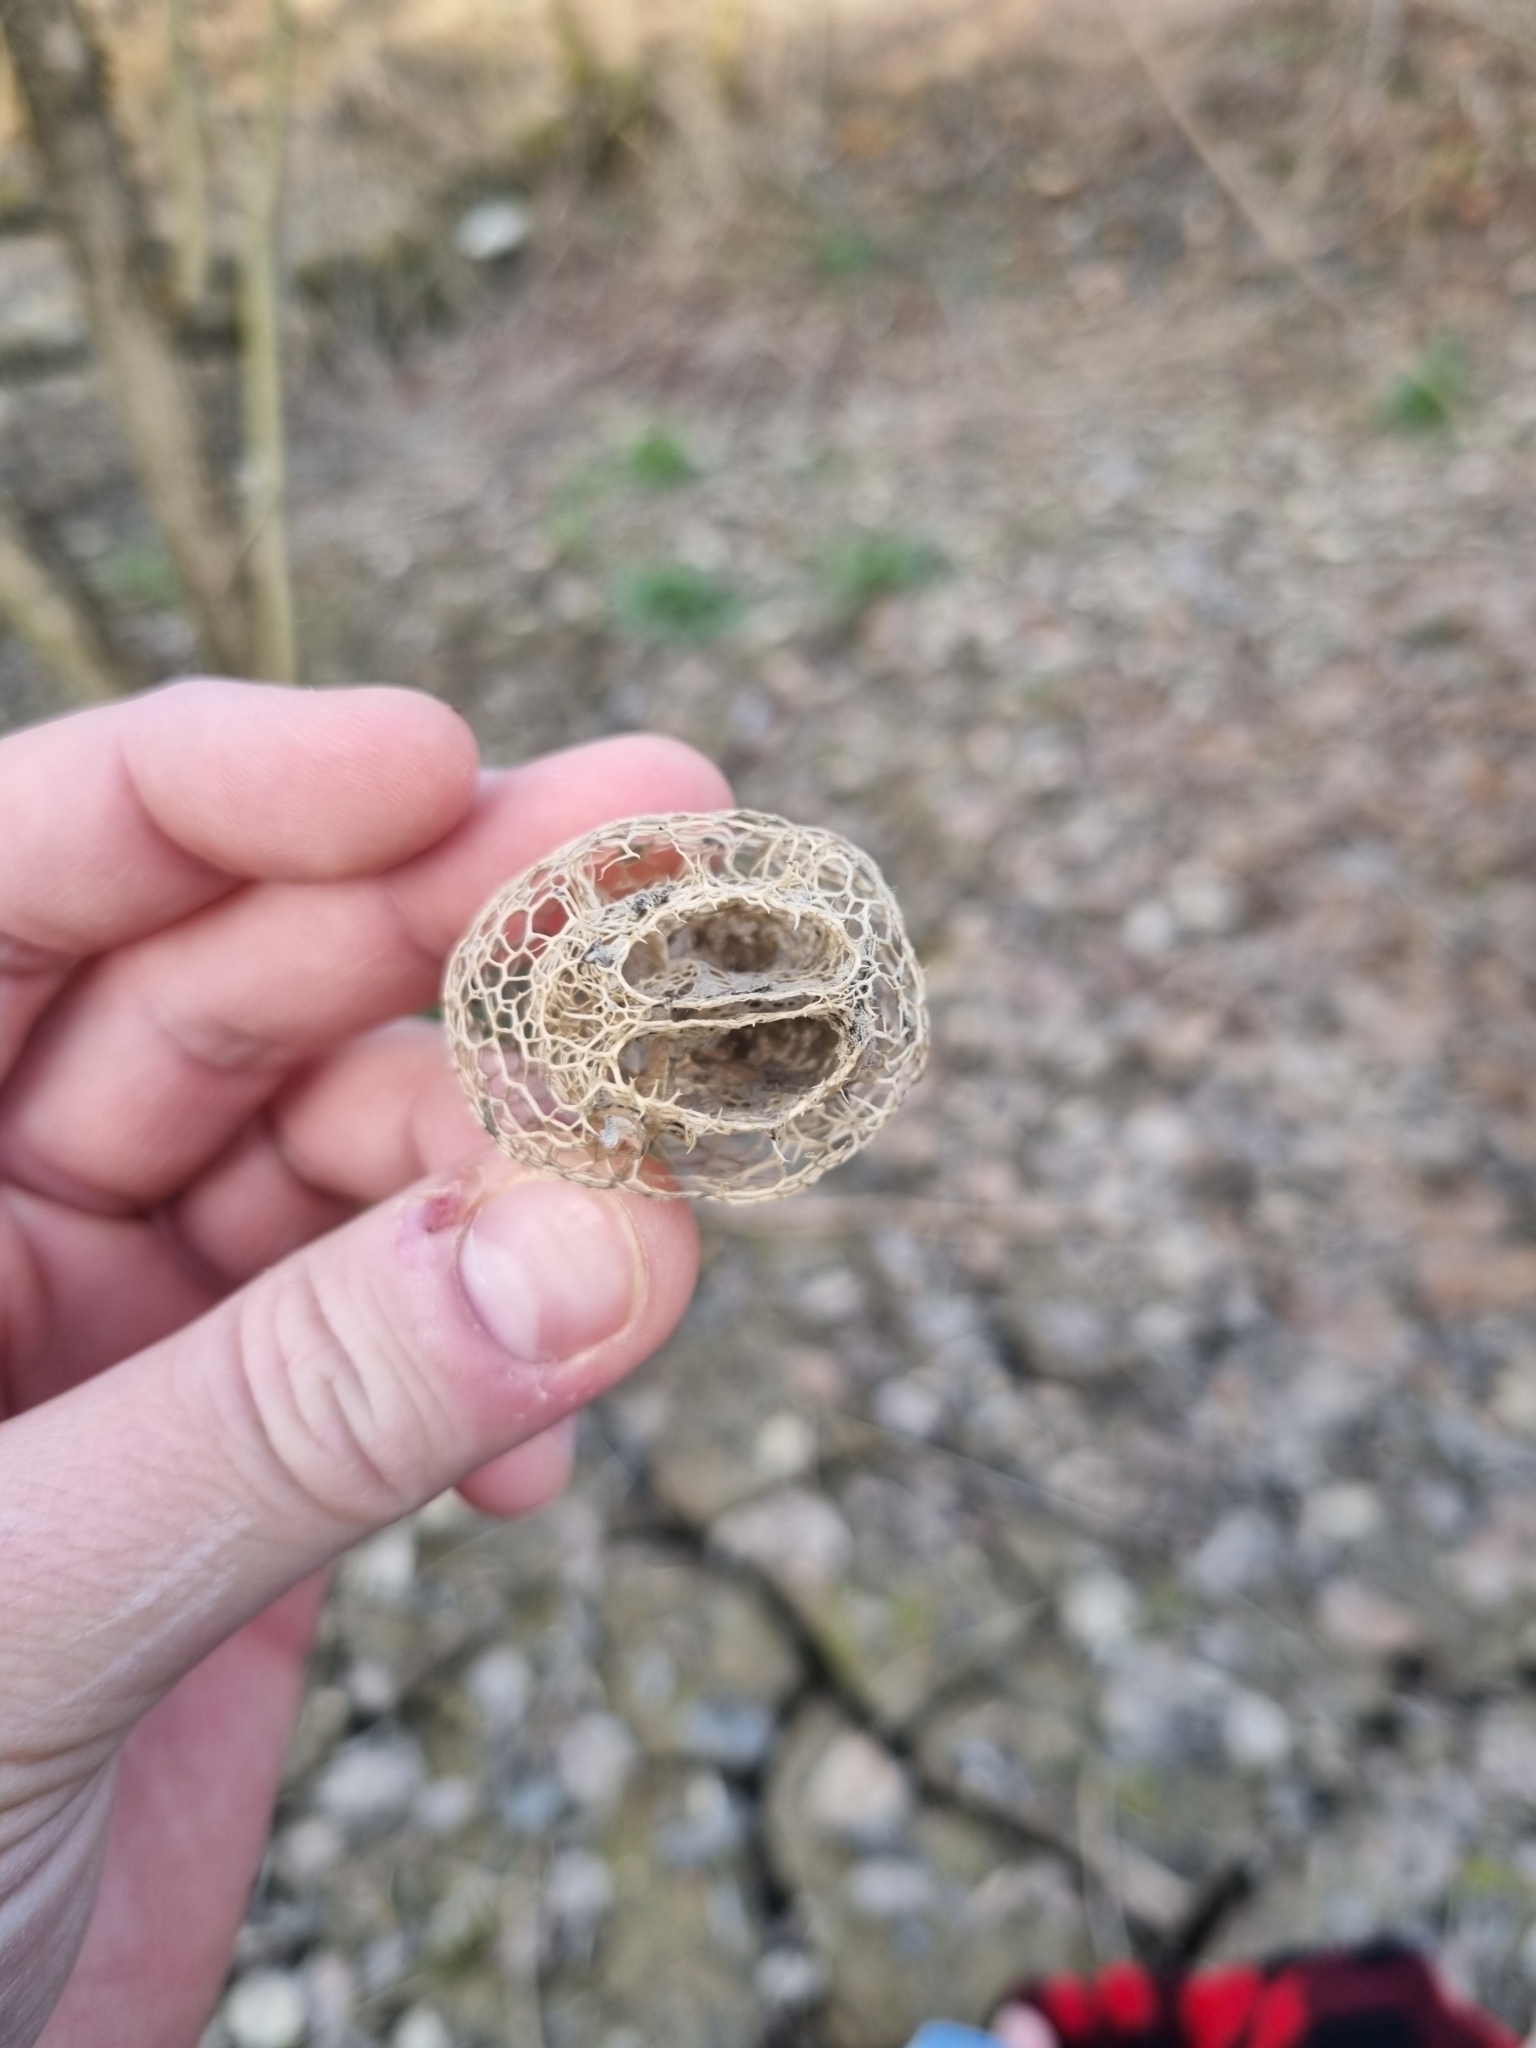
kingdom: Plantae
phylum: Tracheophyta
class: Magnoliopsida
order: Cucurbitales
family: Cucurbitaceae
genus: Echinocystis
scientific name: Echinocystis lobata
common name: Wild cucumber
